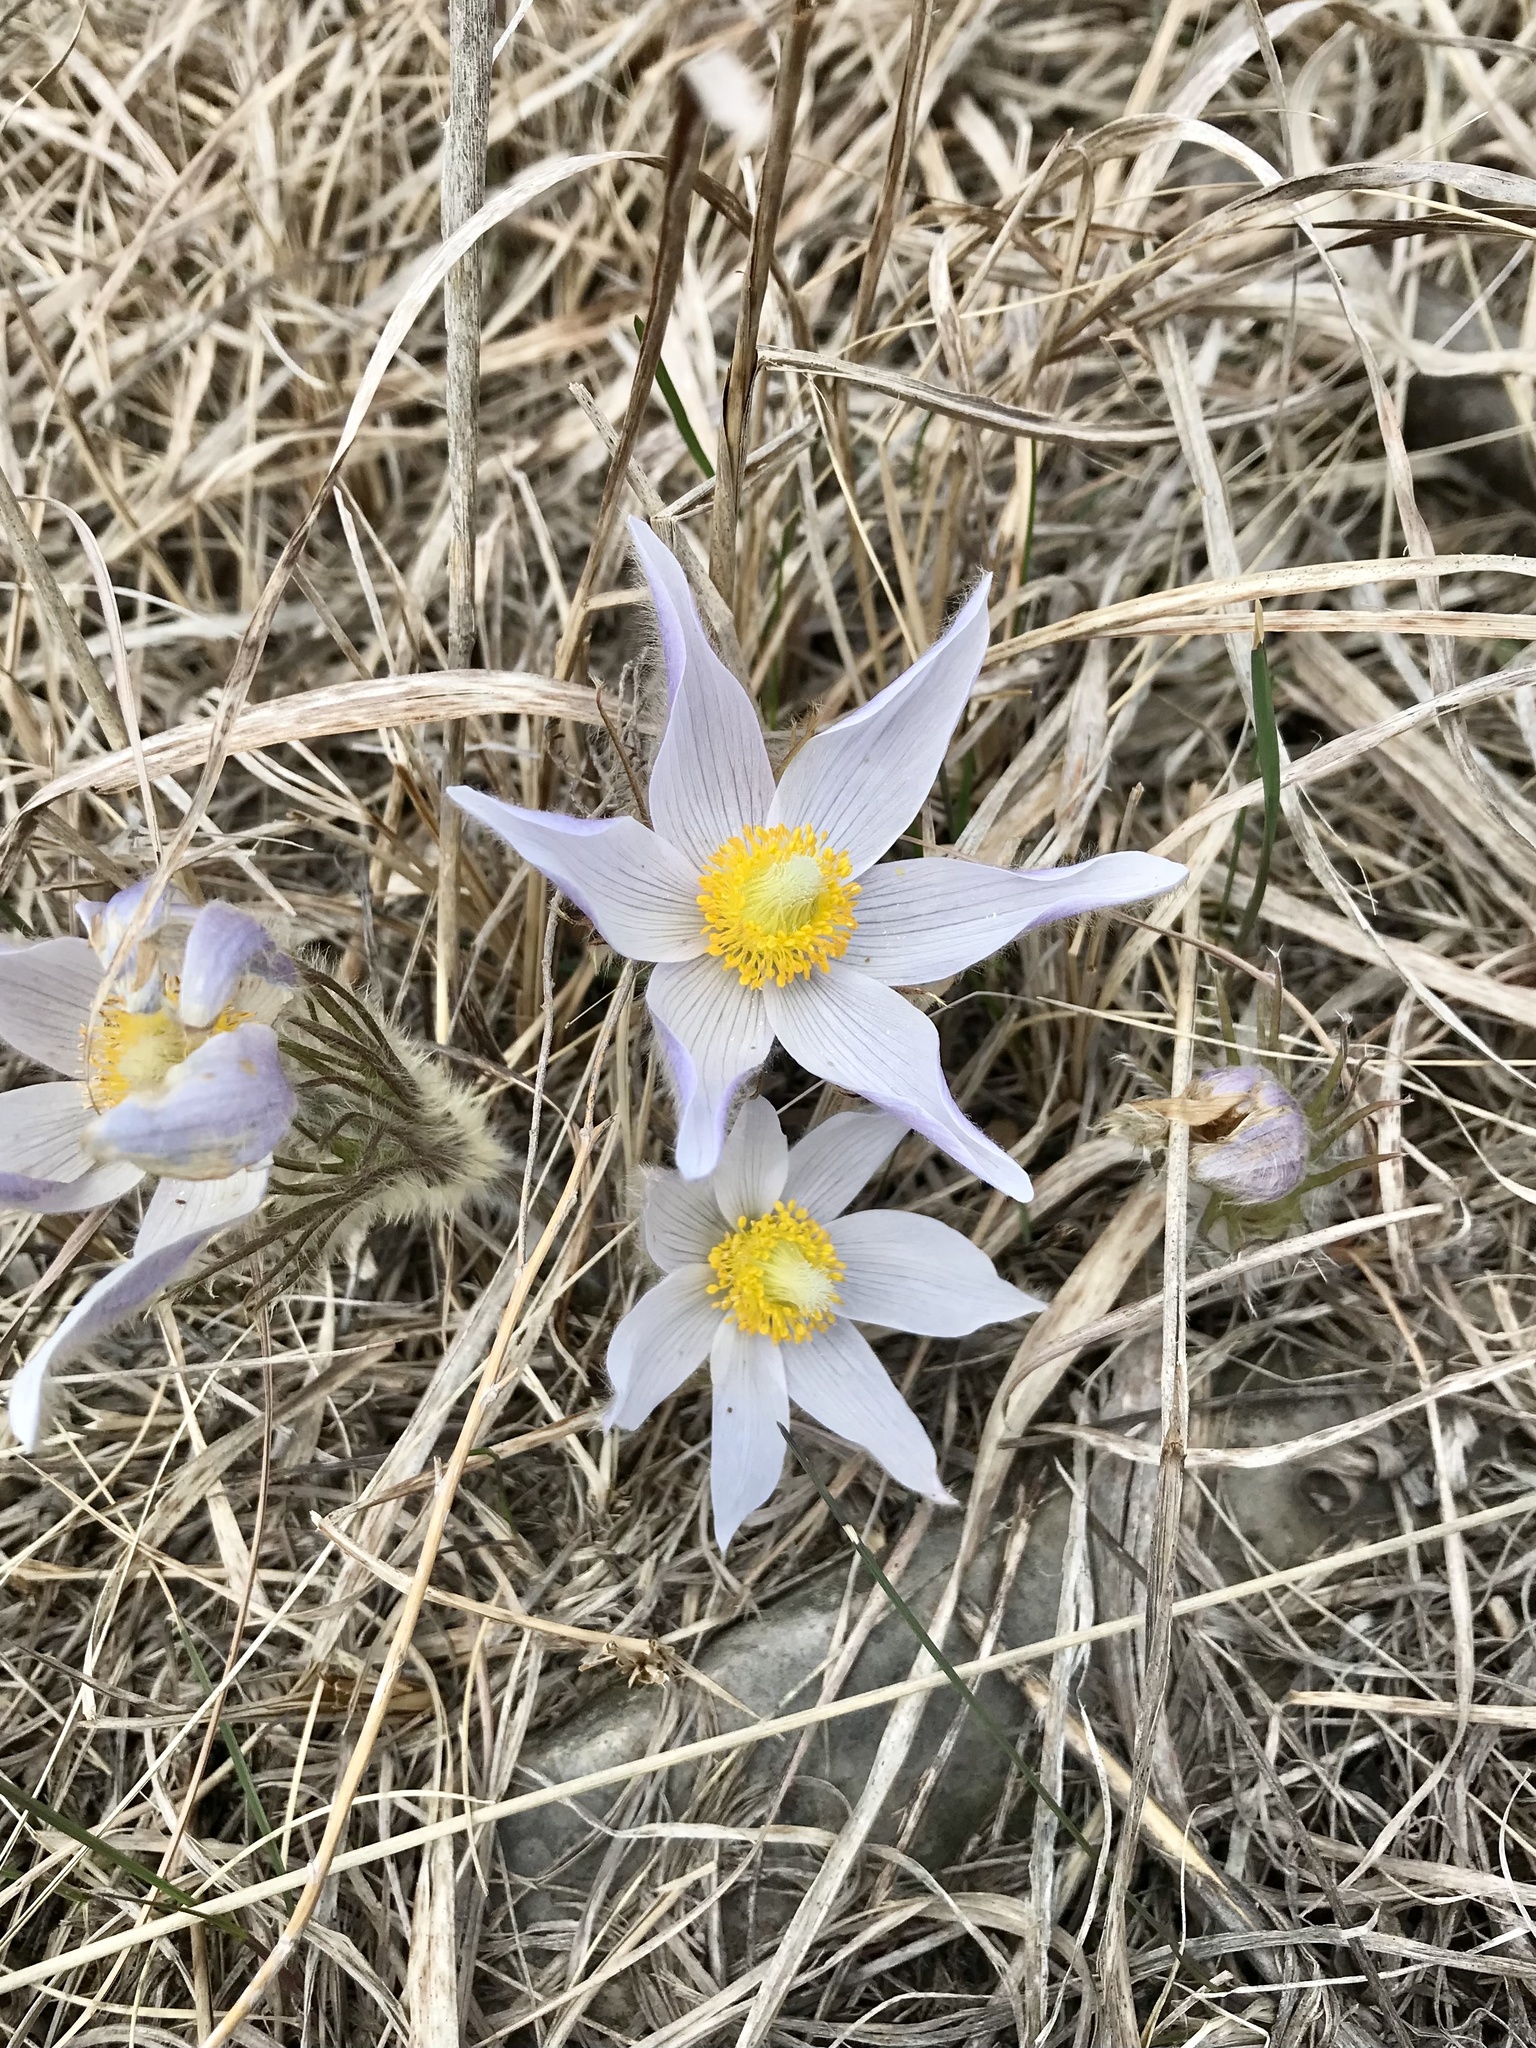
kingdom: Plantae
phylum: Tracheophyta
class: Magnoliopsida
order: Ranunculales
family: Ranunculaceae
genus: Pulsatilla
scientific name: Pulsatilla nuttalliana
